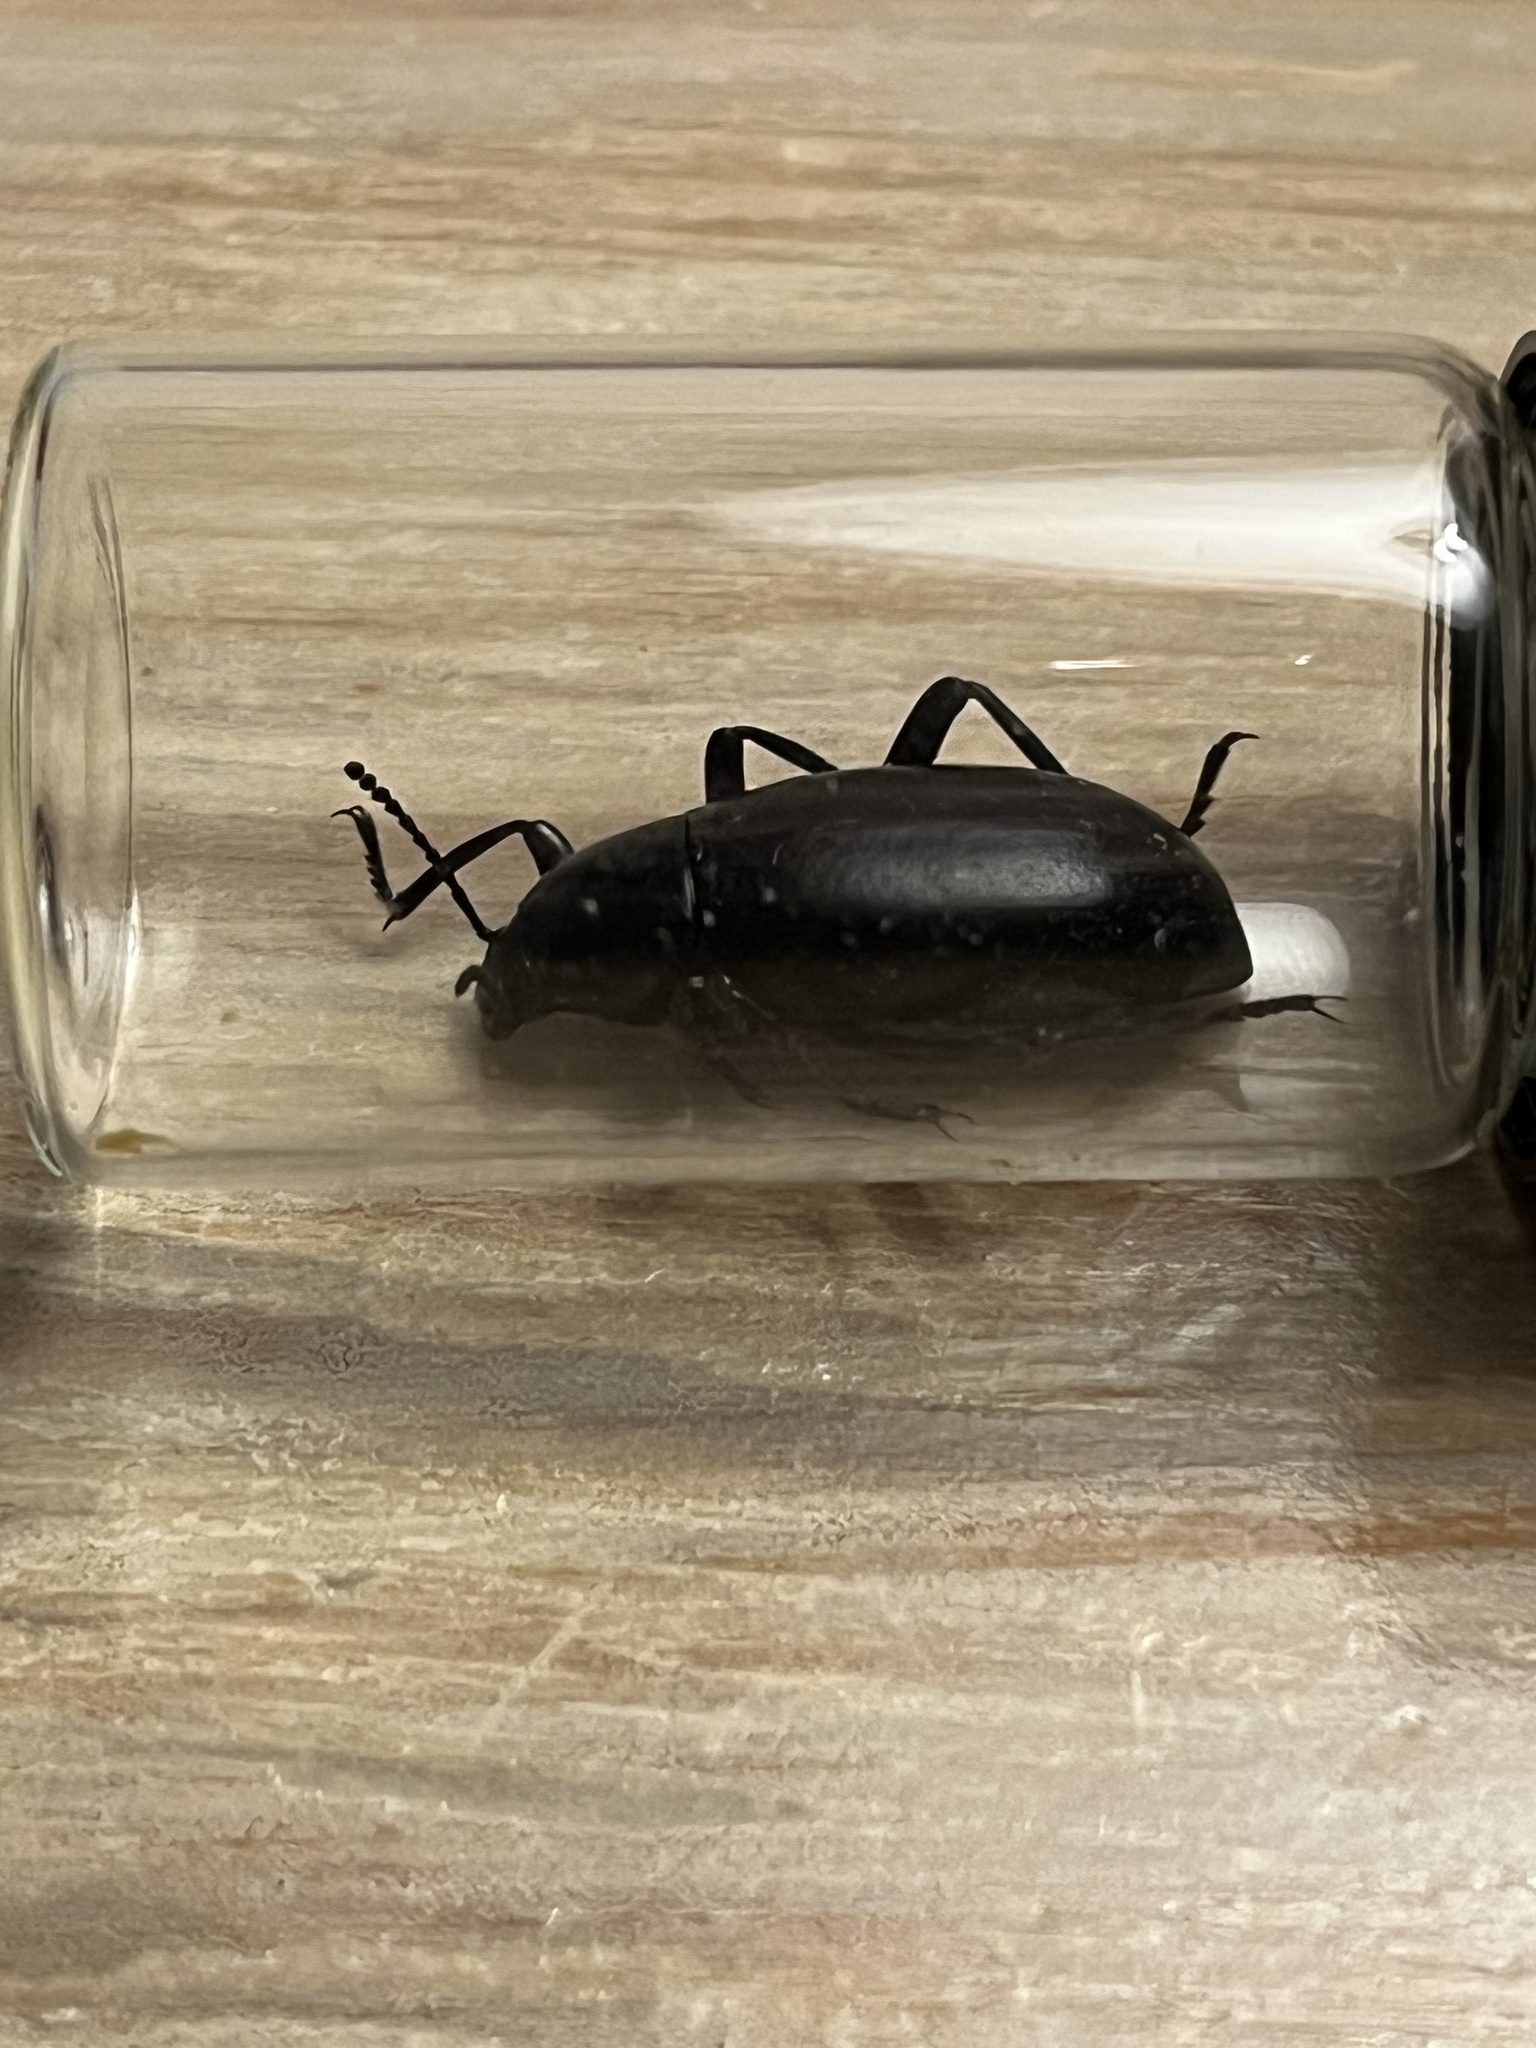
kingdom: Animalia
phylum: Arthropoda
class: Insecta
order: Coleoptera
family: Tenebrionidae
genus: Eleodes
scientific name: Eleodes longicollis
